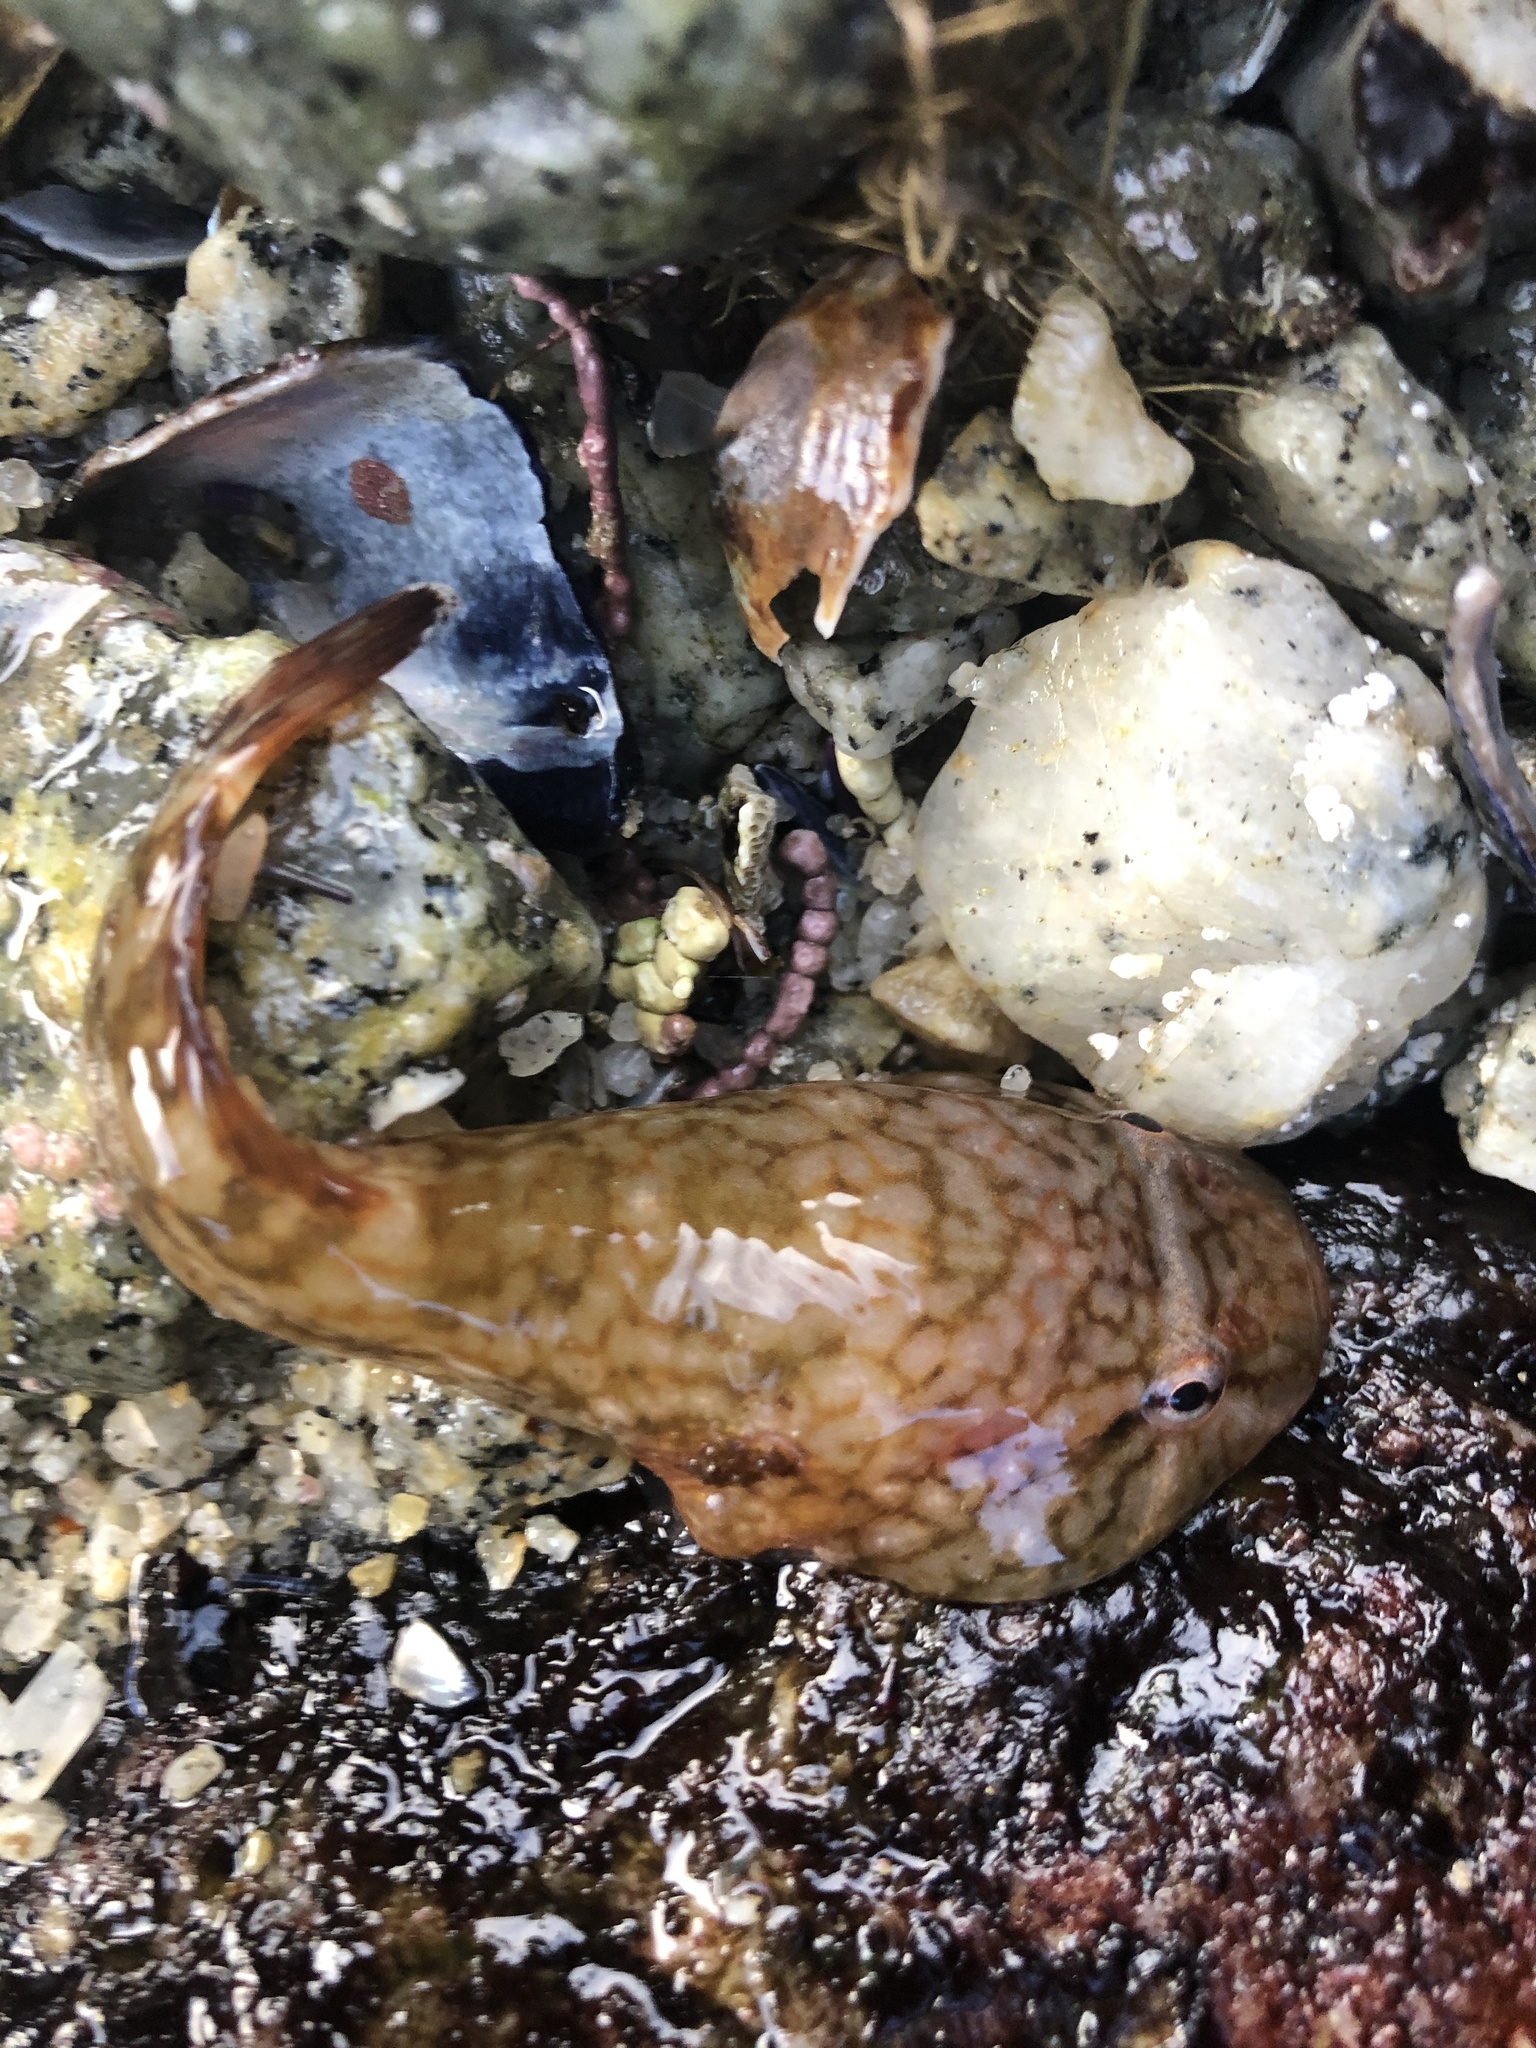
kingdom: Animalia
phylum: Chordata
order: Gobiesociformes
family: Gobiesocidae
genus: Gobiesox
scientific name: Gobiesox maeandricus
